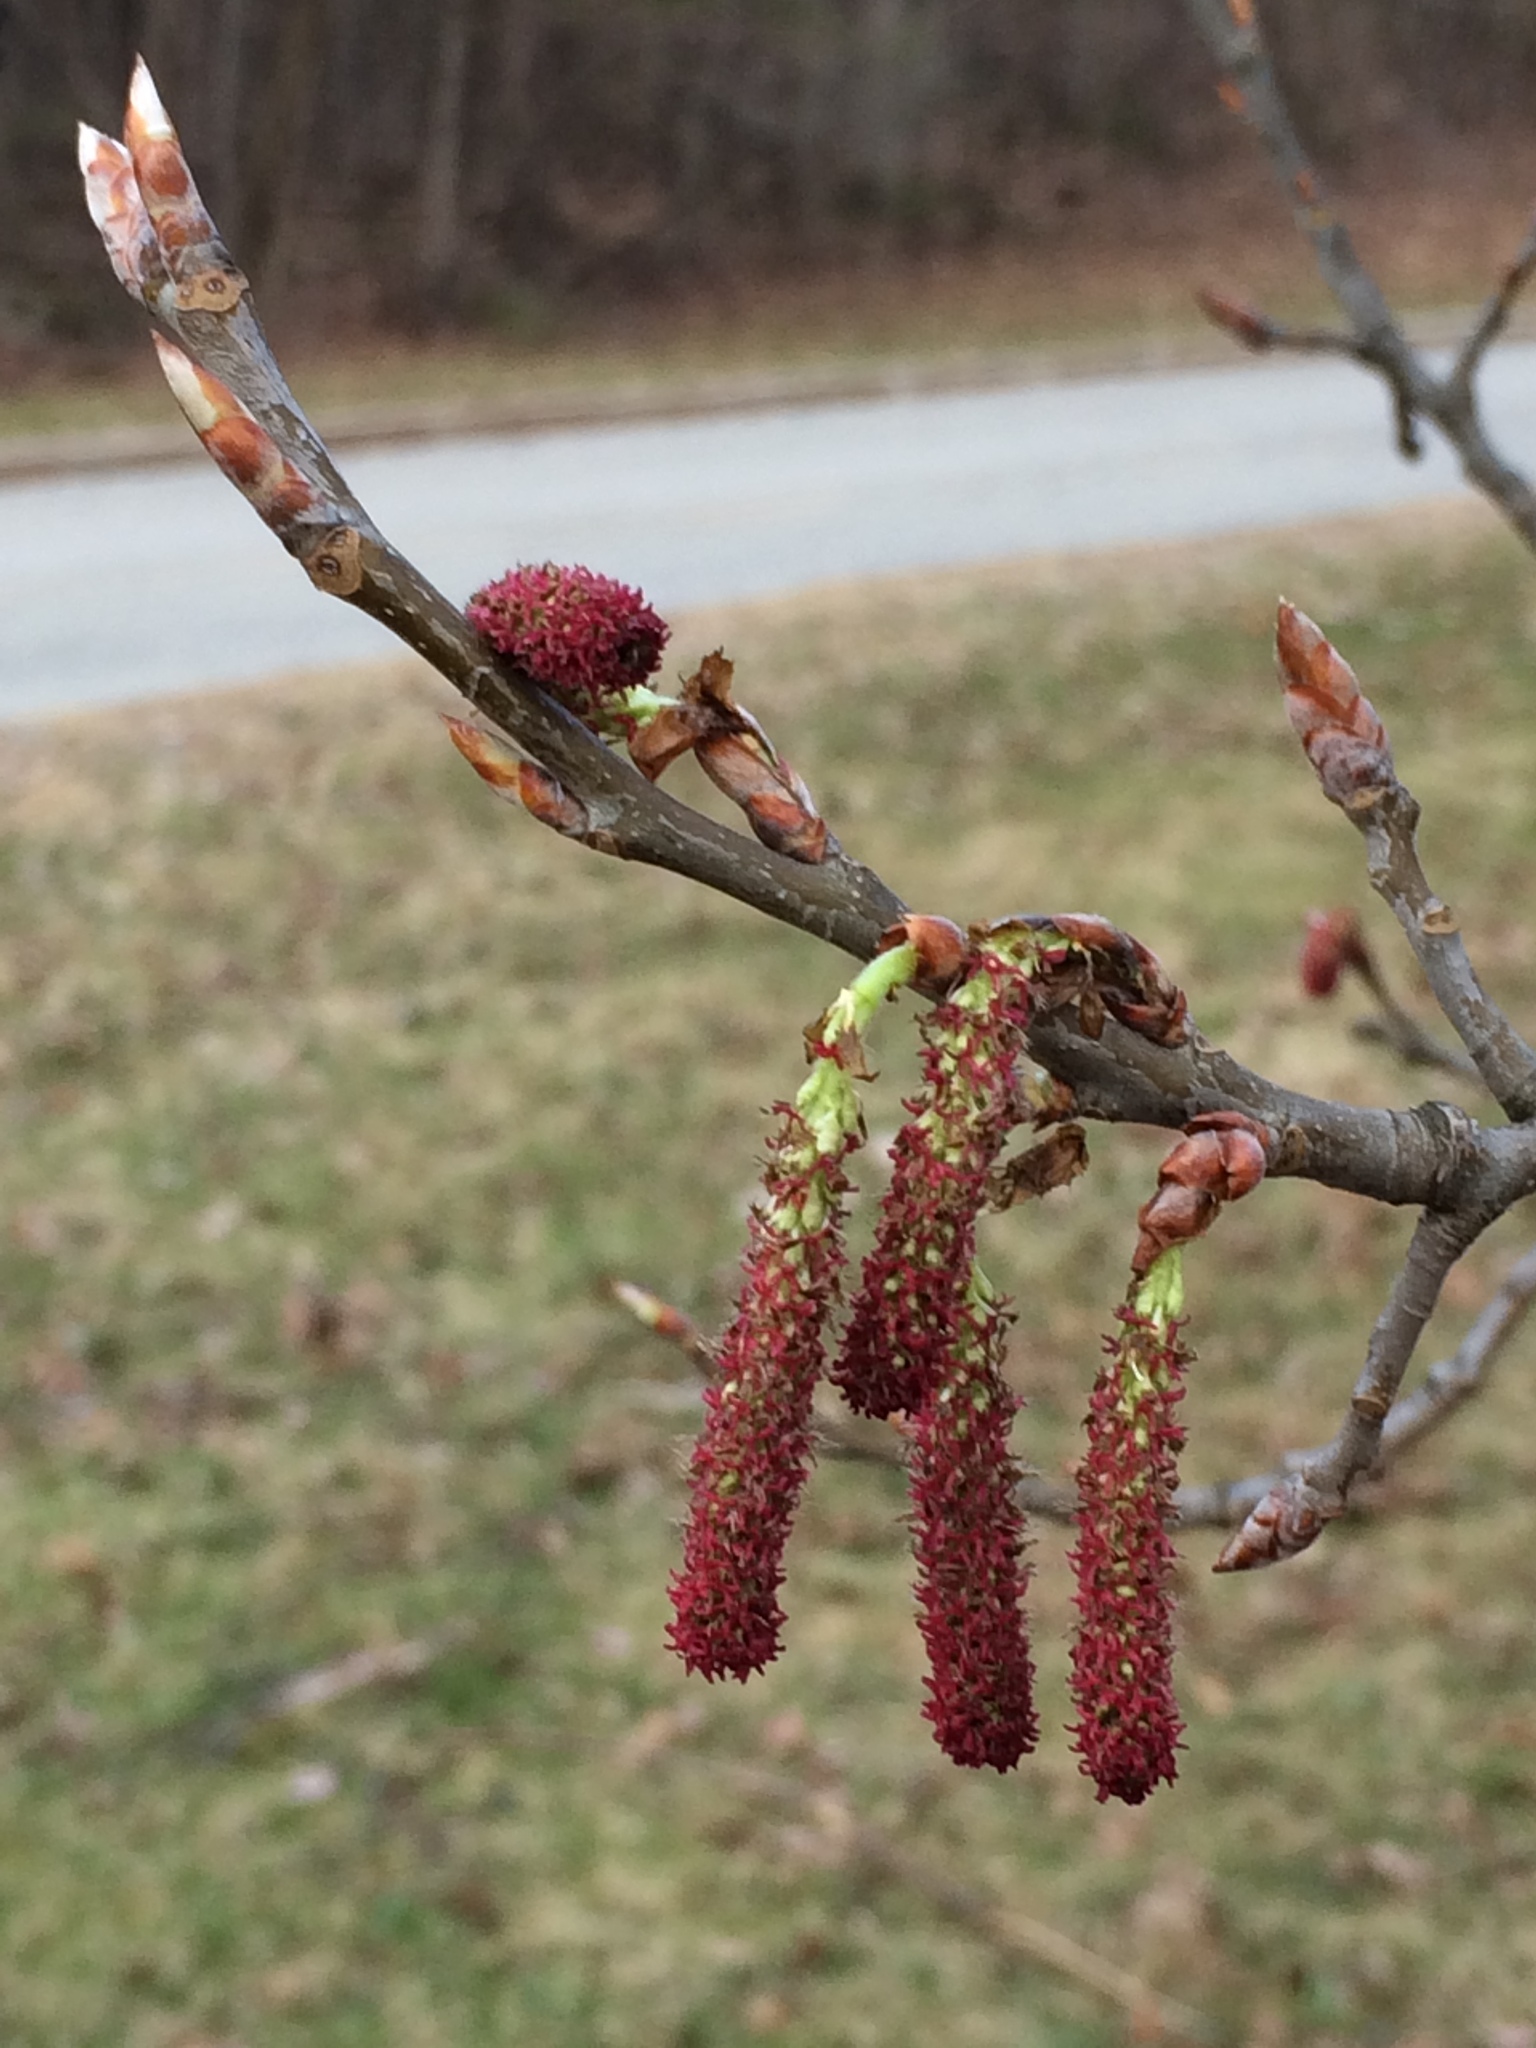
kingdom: Plantae
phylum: Tracheophyta
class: Magnoliopsida
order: Malpighiales
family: Salicaceae
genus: Populus
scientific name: Populus grandidentata
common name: Bigtooth aspen
